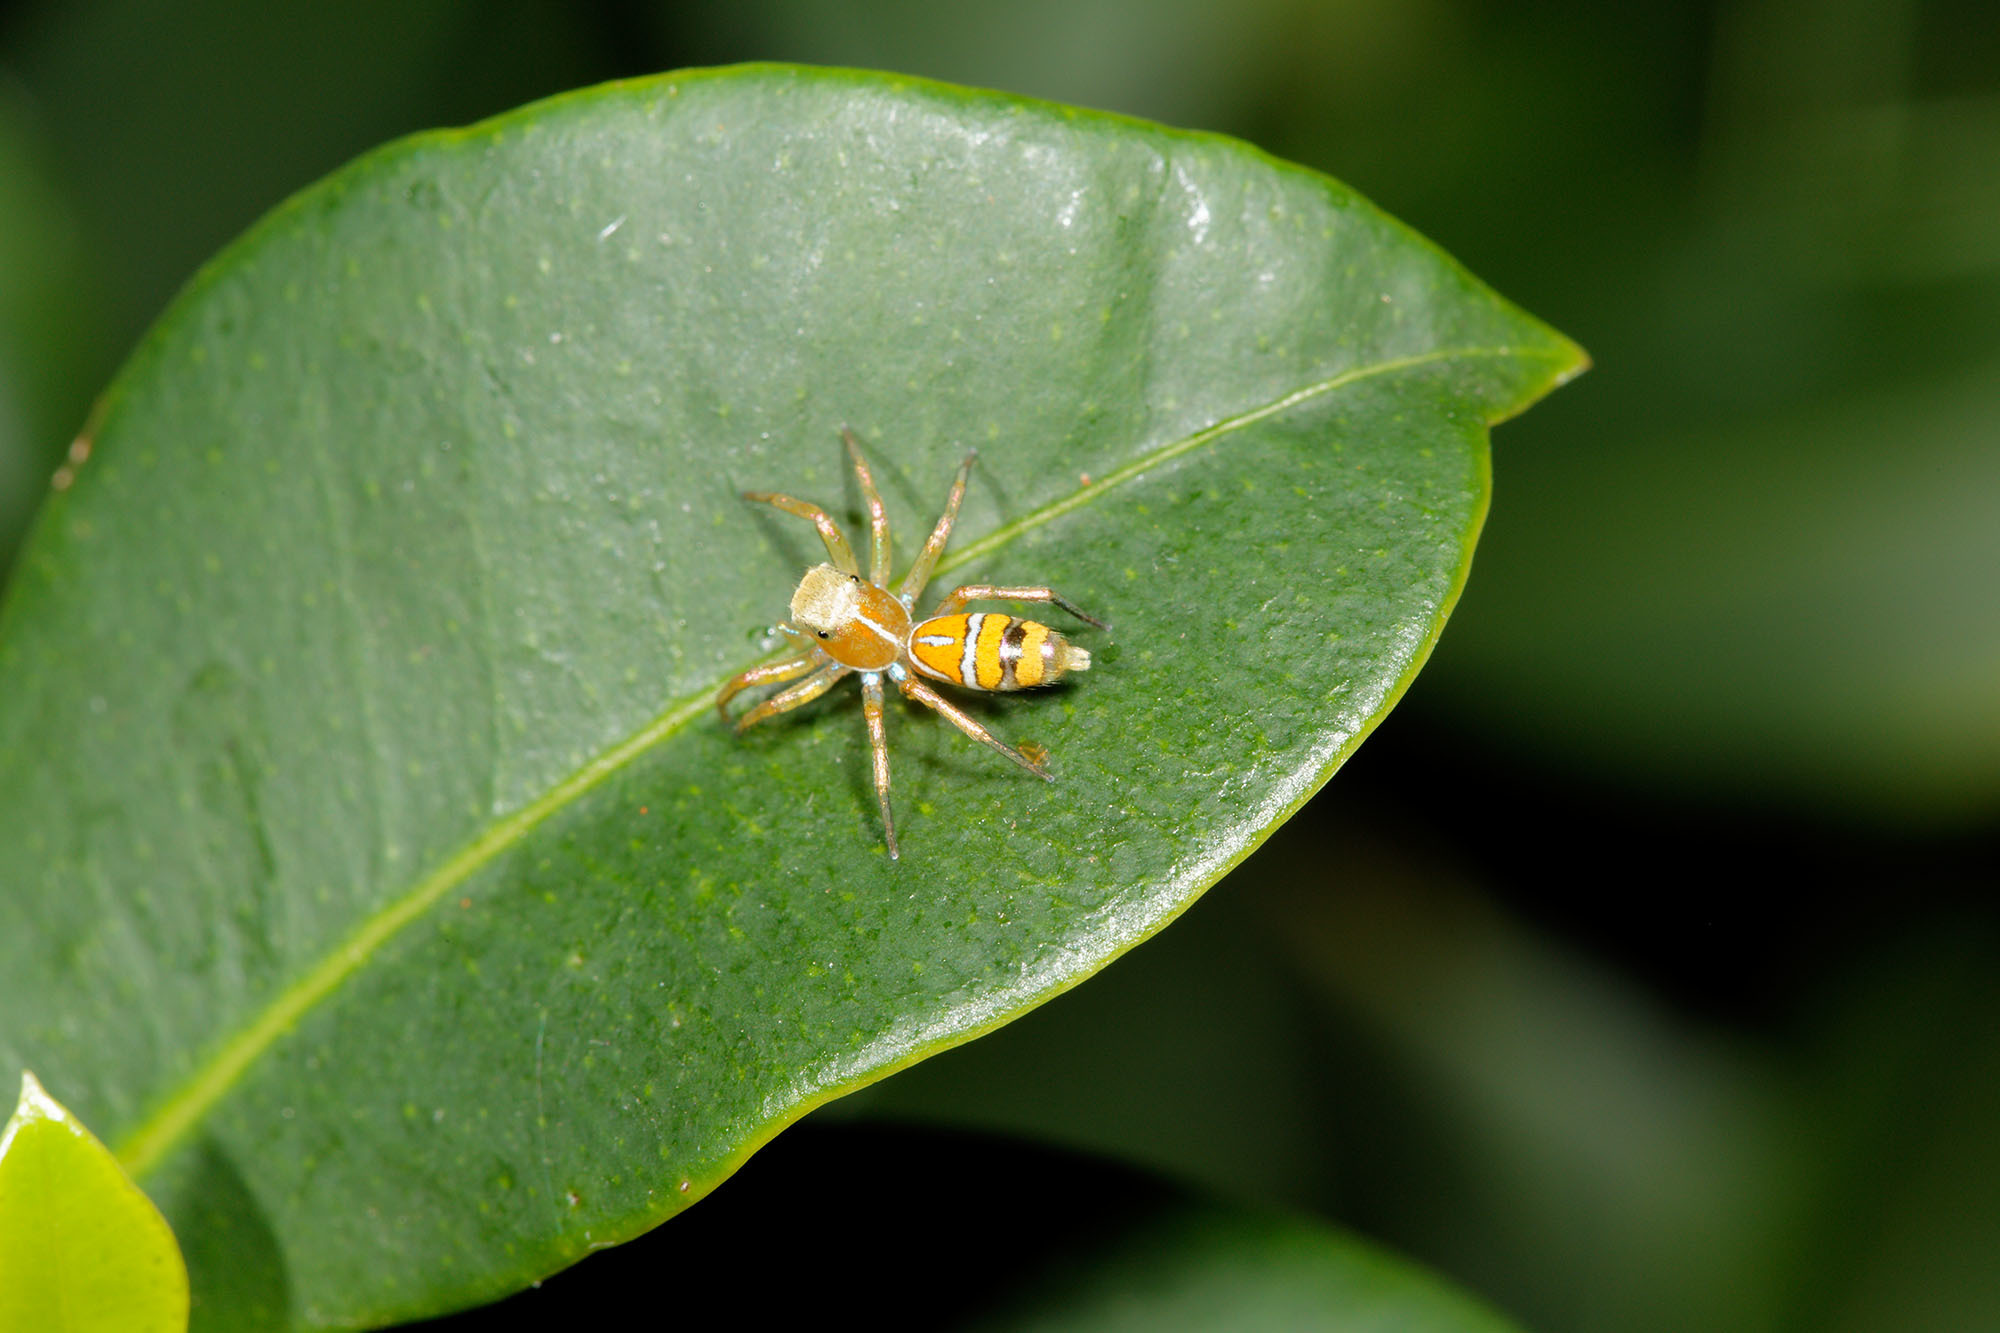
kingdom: Animalia
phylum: Arthropoda
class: Arachnida
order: Araneae
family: Salticidae
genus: Cosmophasis
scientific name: Cosmophasis bitaeniata
